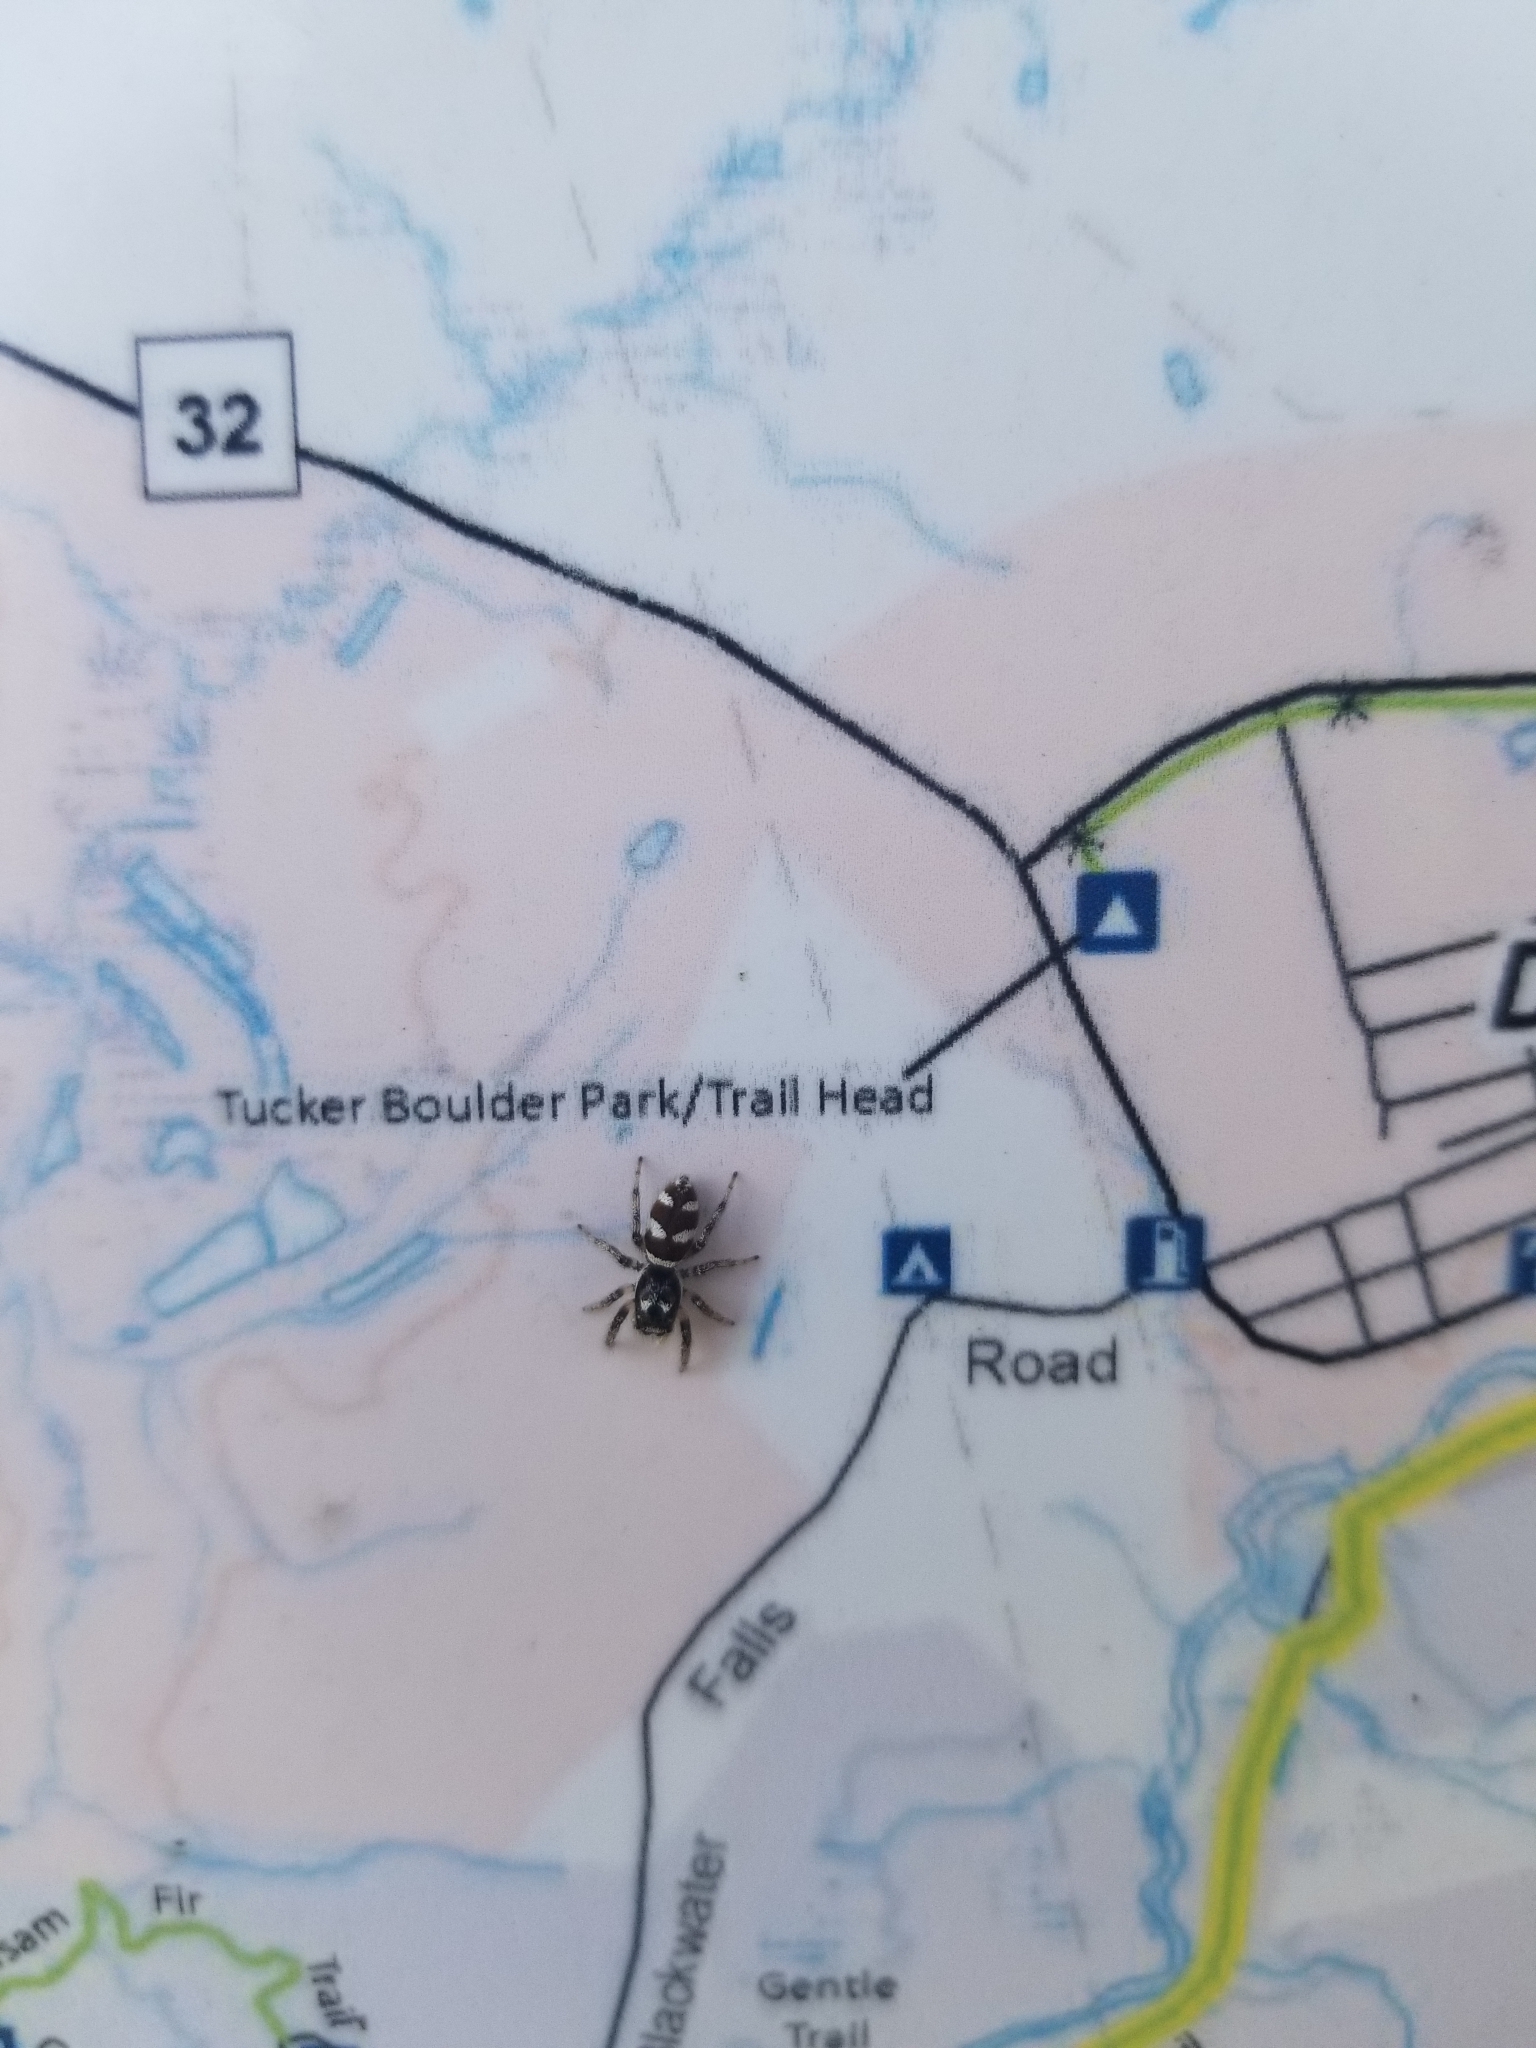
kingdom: Animalia
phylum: Arthropoda
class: Arachnida
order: Araneae
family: Salticidae
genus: Salticus
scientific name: Salticus scenicus
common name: Zebra jumper
